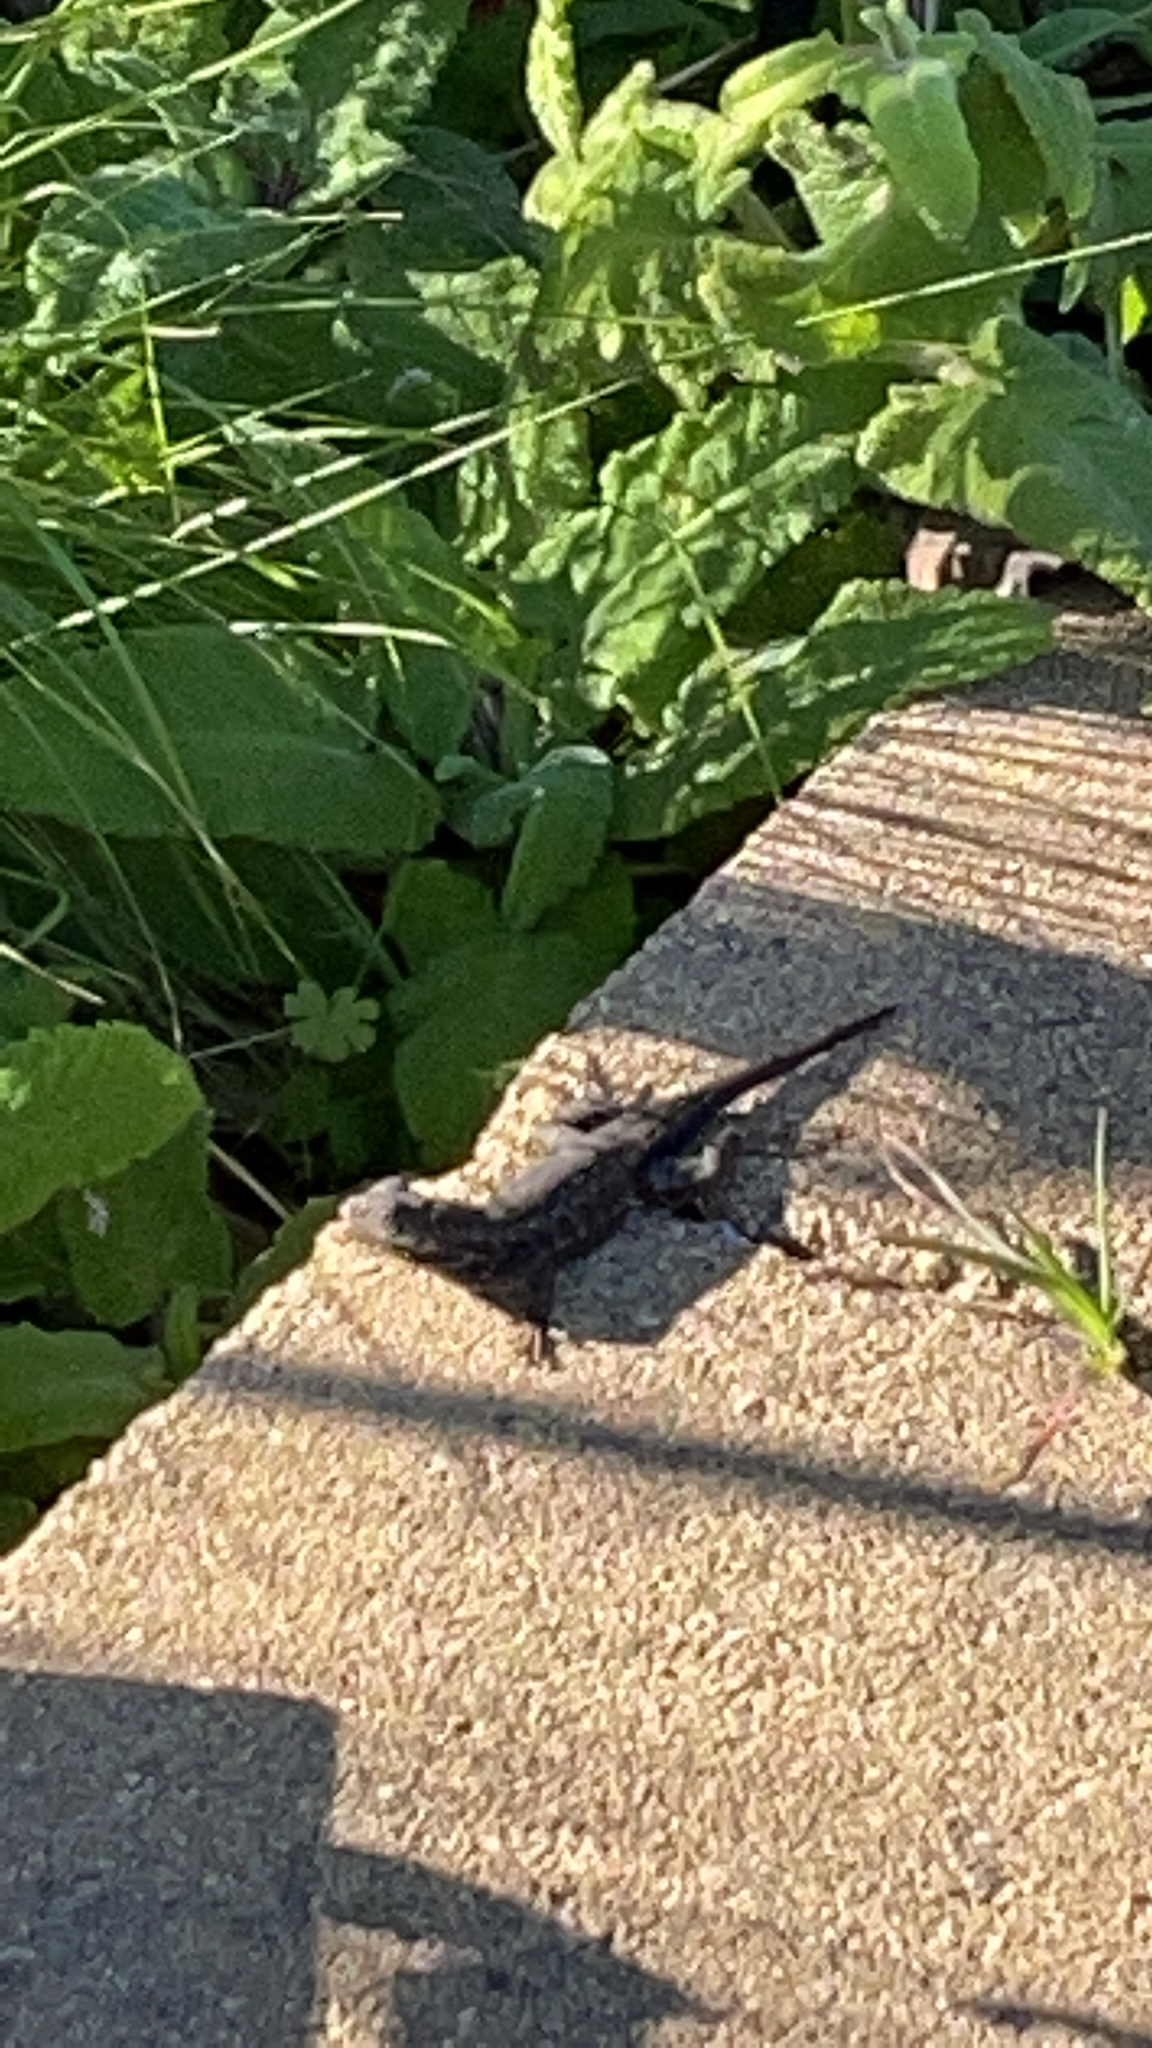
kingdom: Animalia
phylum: Chordata
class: Squamata
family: Phrynosomatidae
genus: Sceloporus
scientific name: Sceloporus occidentalis
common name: Western fence lizard
